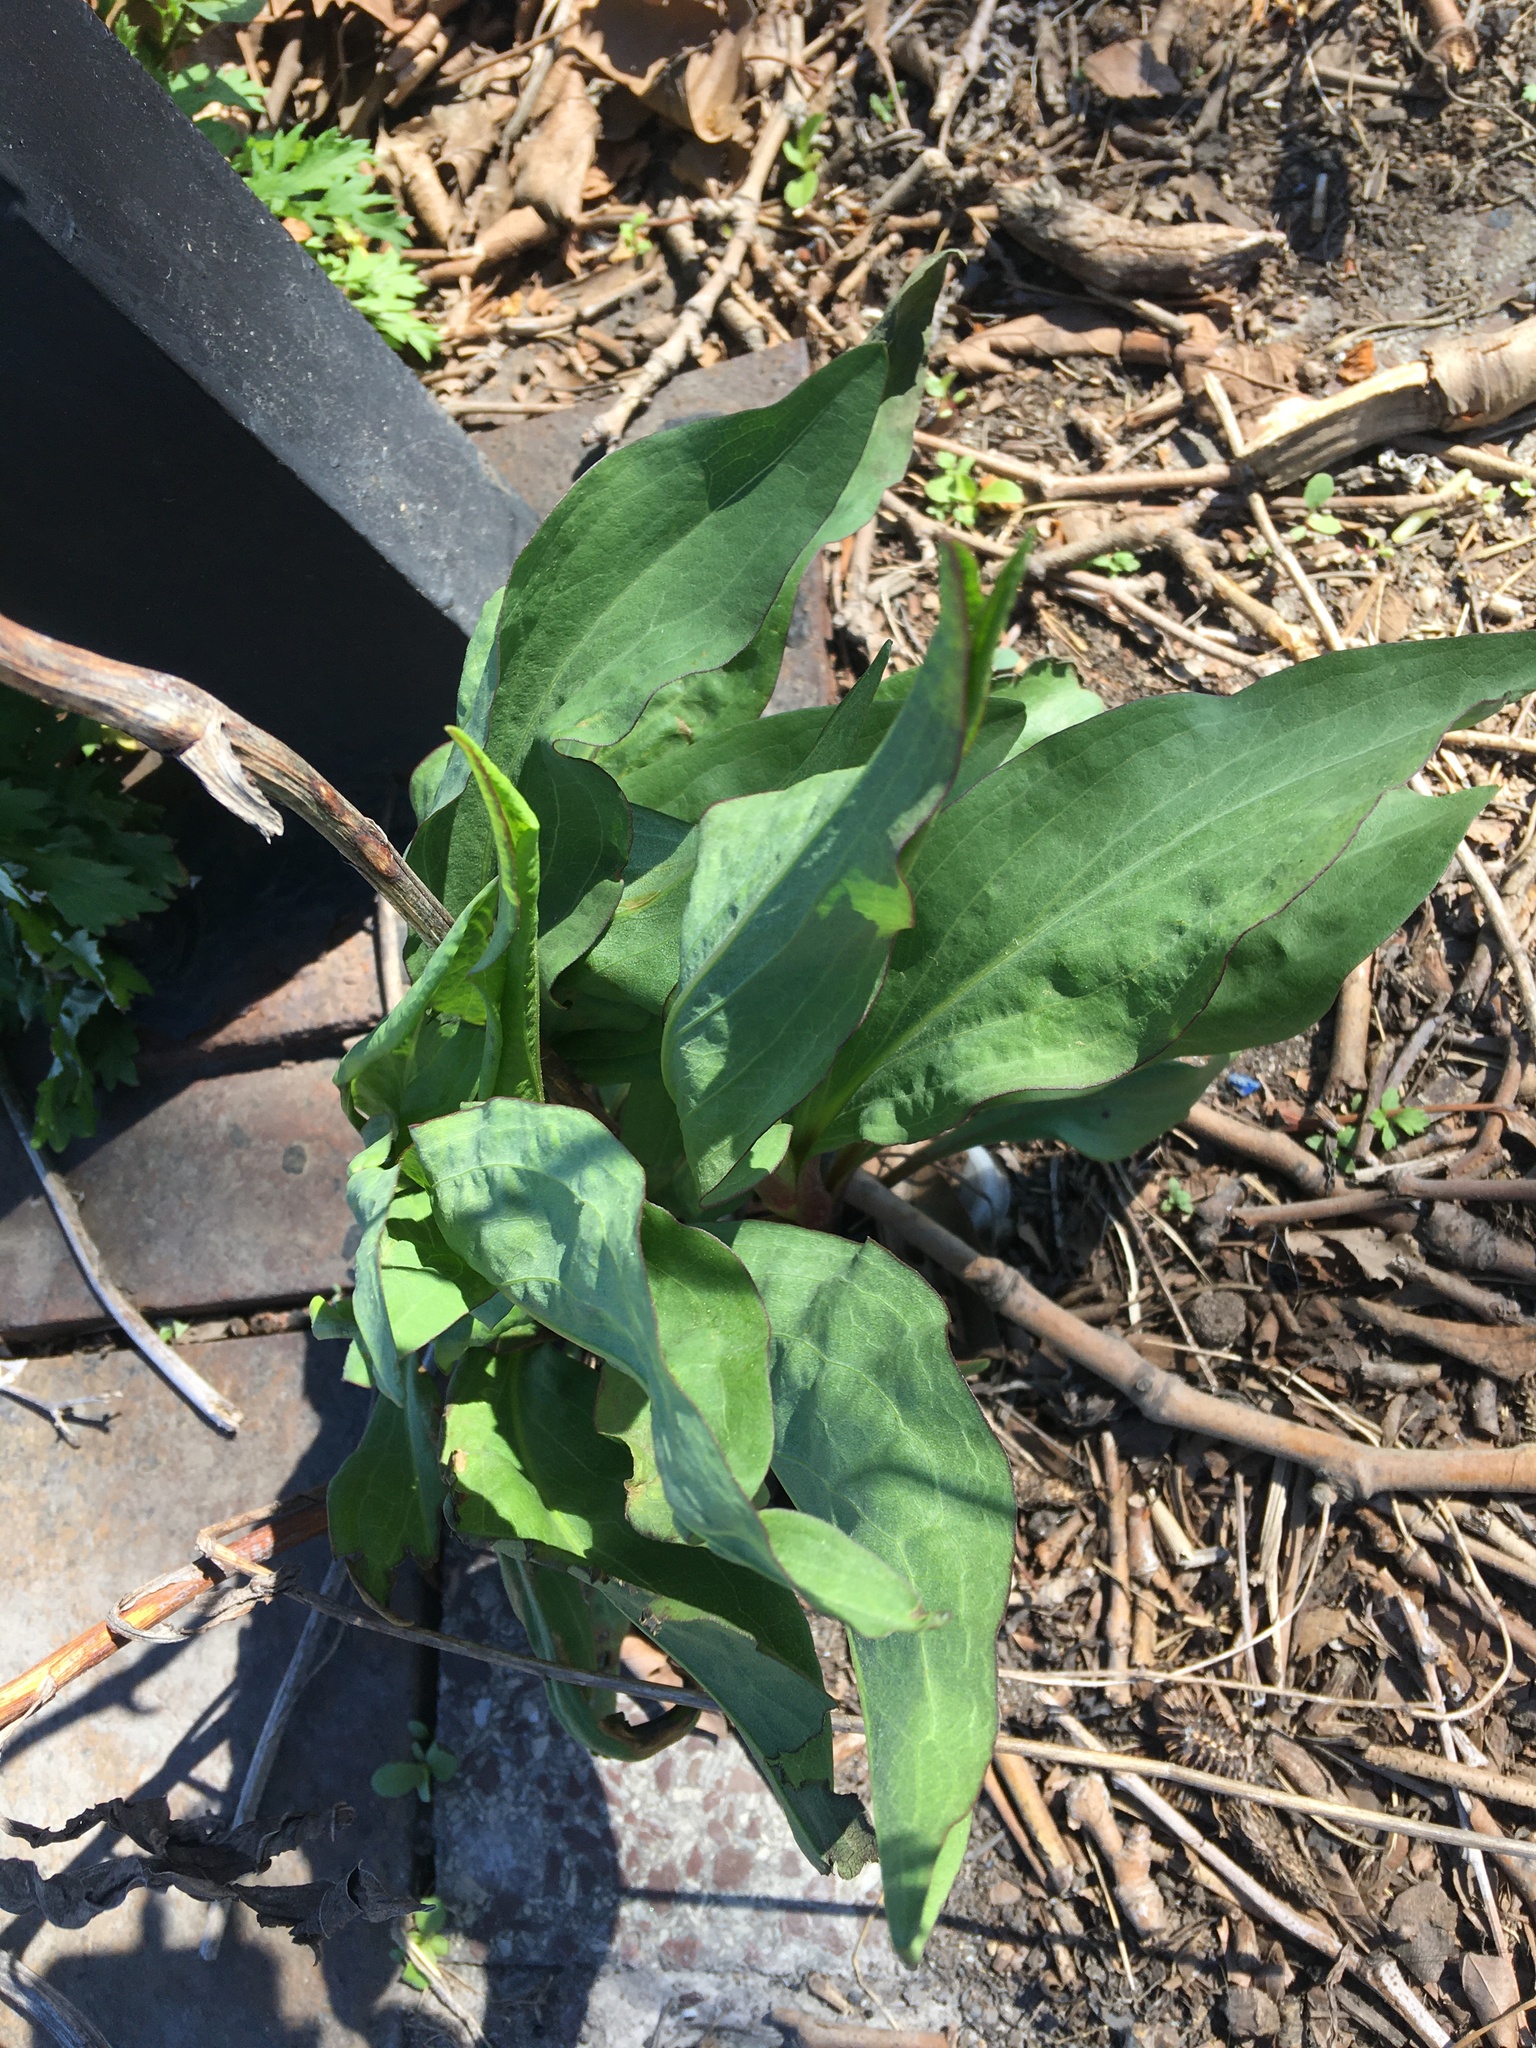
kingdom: Plantae
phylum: Tracheophyta
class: Magnoliopsida
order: Asterales
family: Asteraceae
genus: Solidago
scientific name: Solidago sempervirens
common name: Salt-marsh goldenrod
